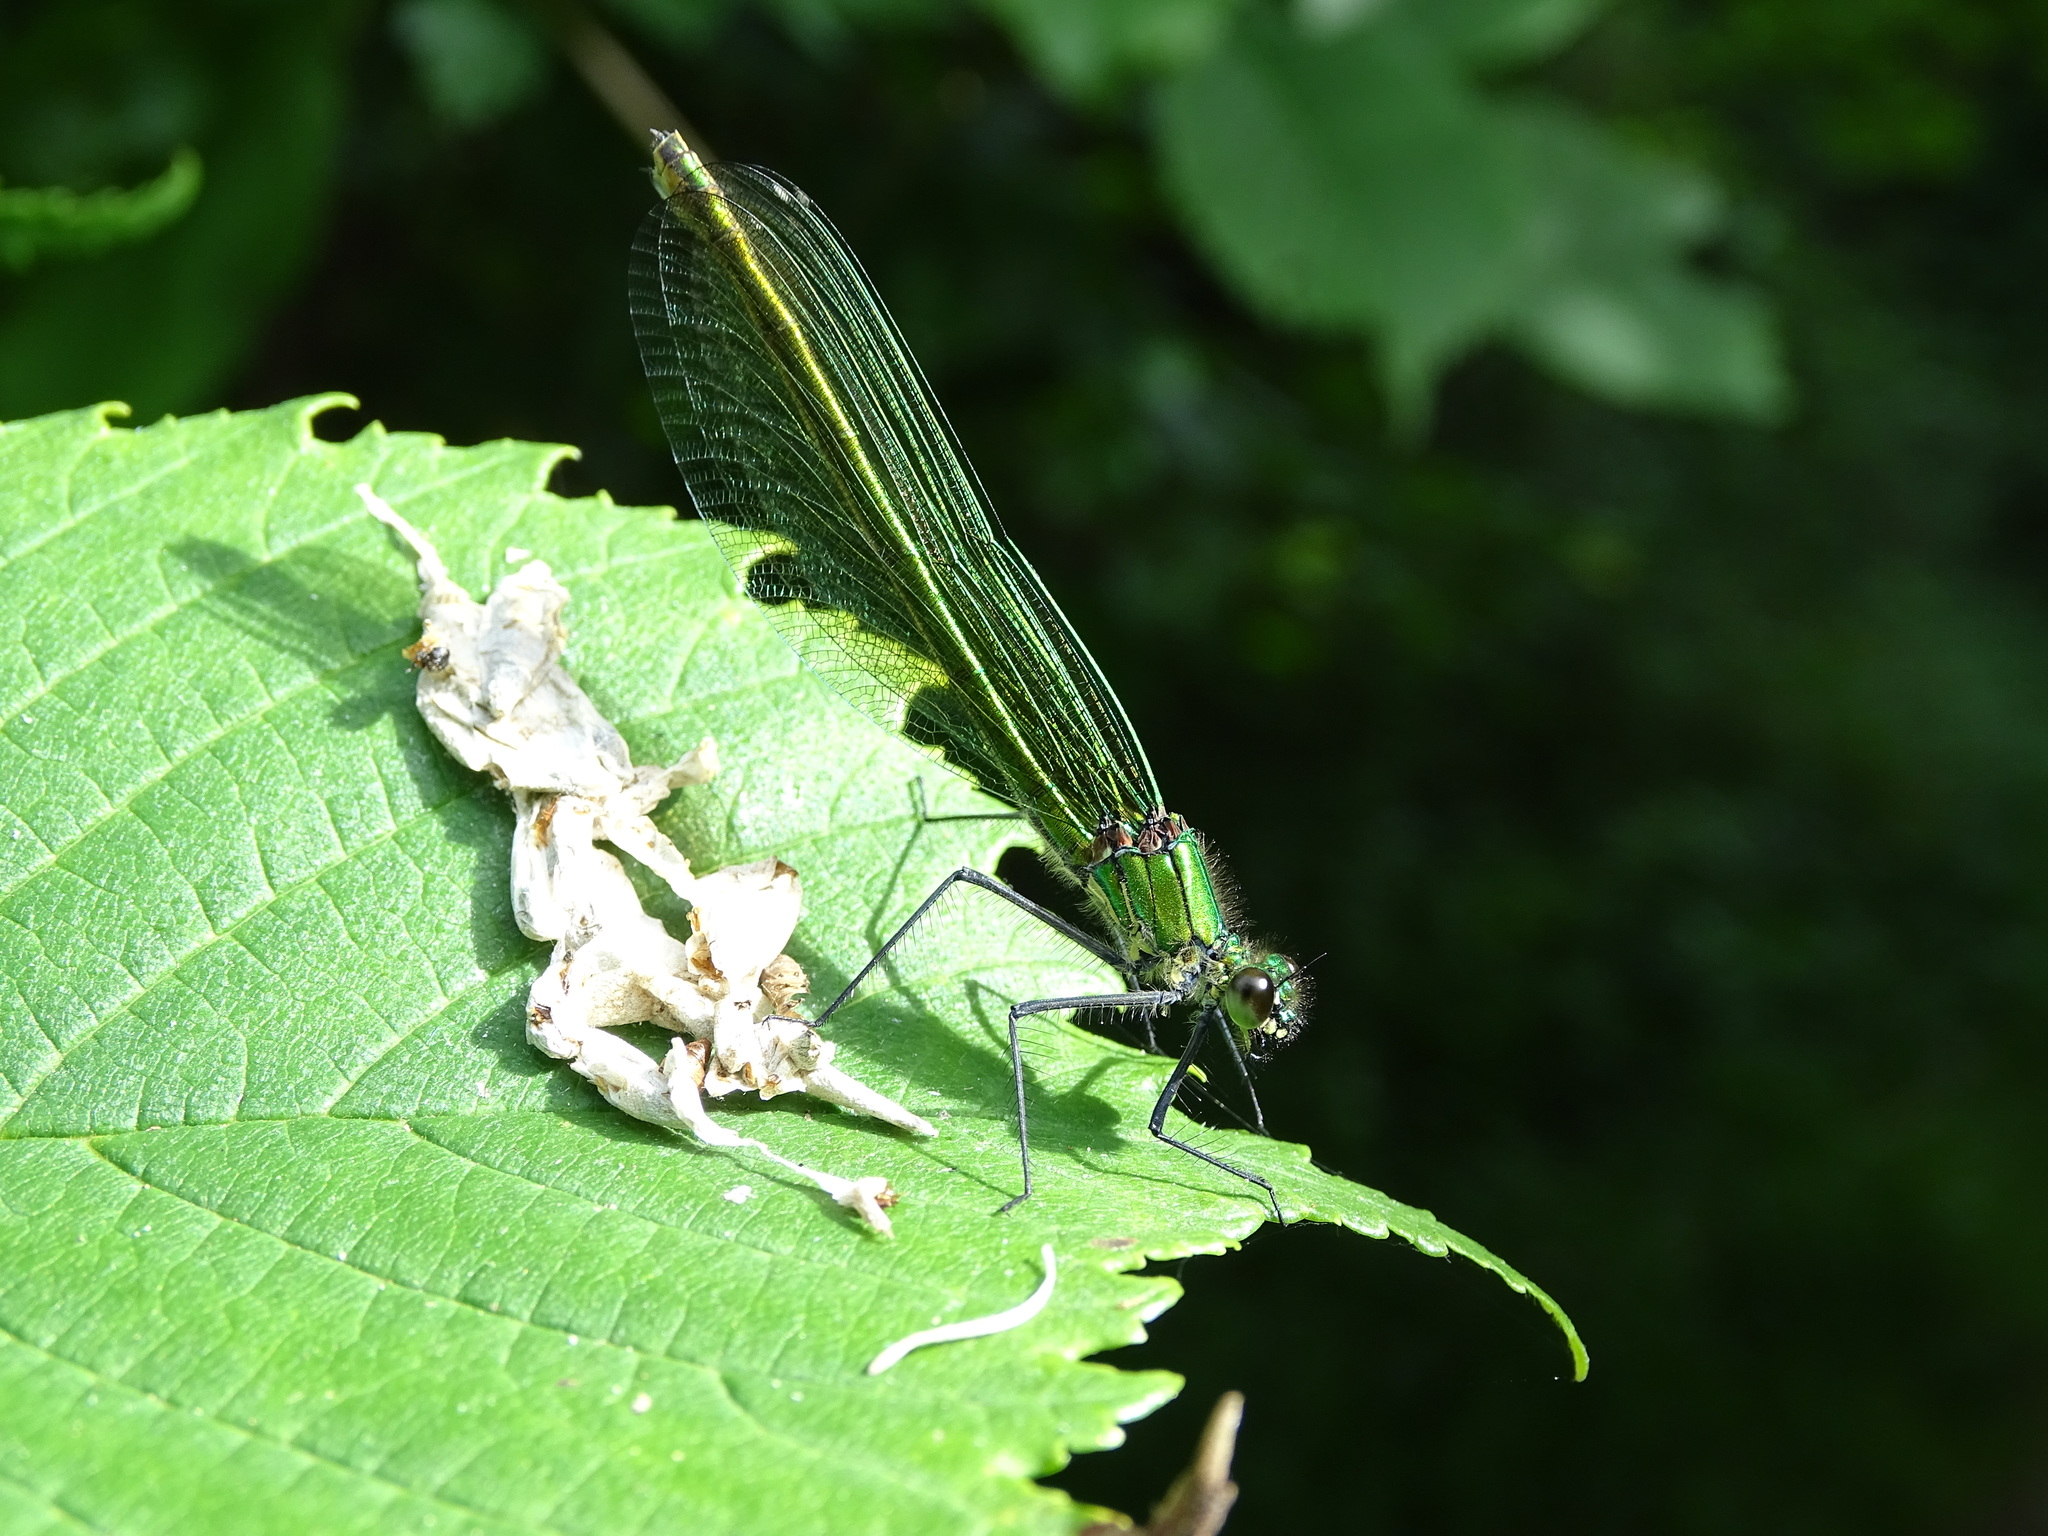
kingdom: Animalia
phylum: Arthropoda
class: Insecta
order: Odonata
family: Calopterygidae
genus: Calopteryx
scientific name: Calopteryx virgo
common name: Beautiful demoiselle
